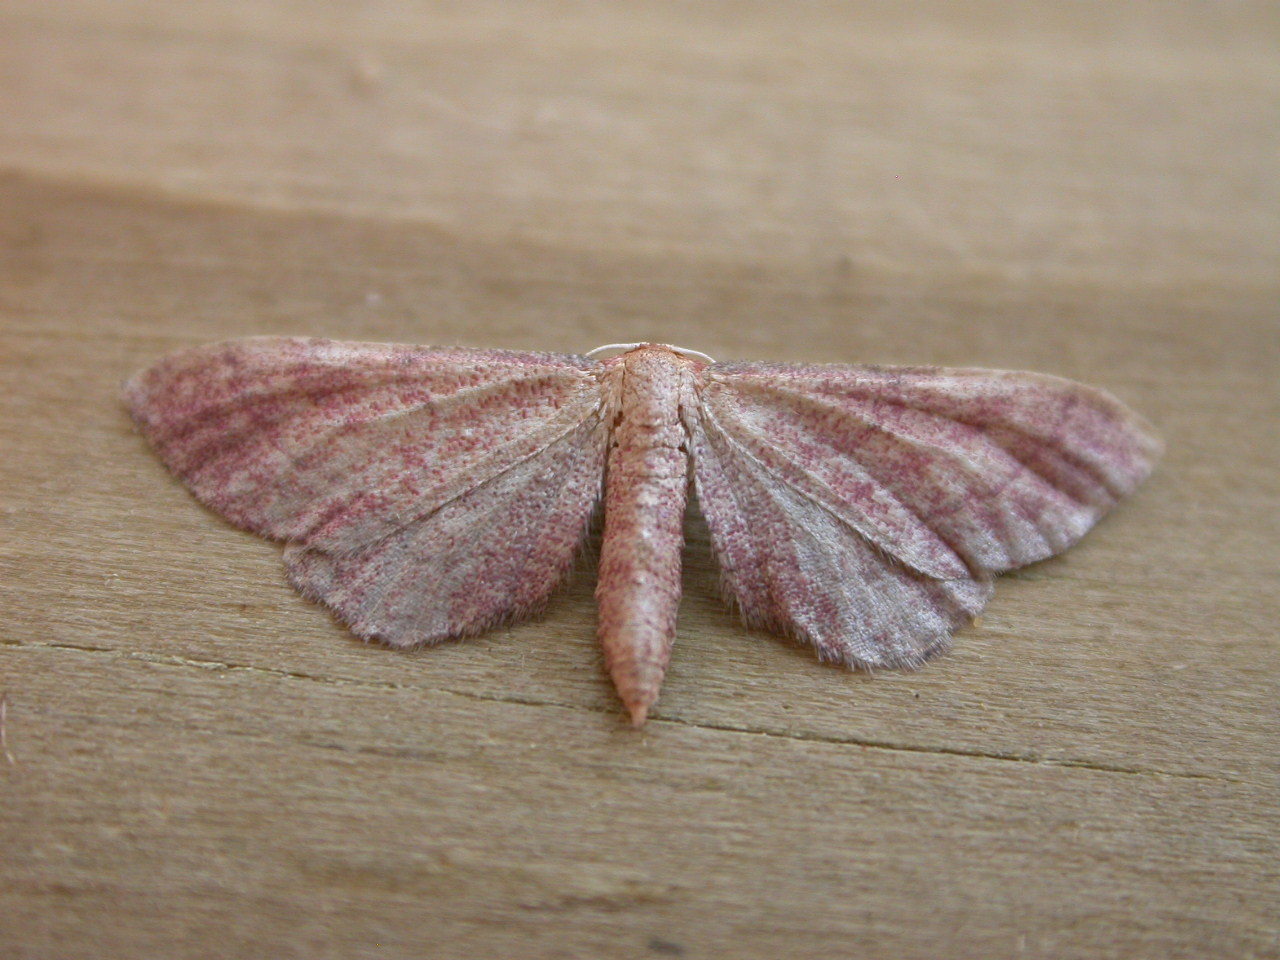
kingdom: Animalia
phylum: Arthropoda
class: Insecta
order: Lepidoptera
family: Geometridae
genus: Idaea
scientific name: Idaea infirmaria
